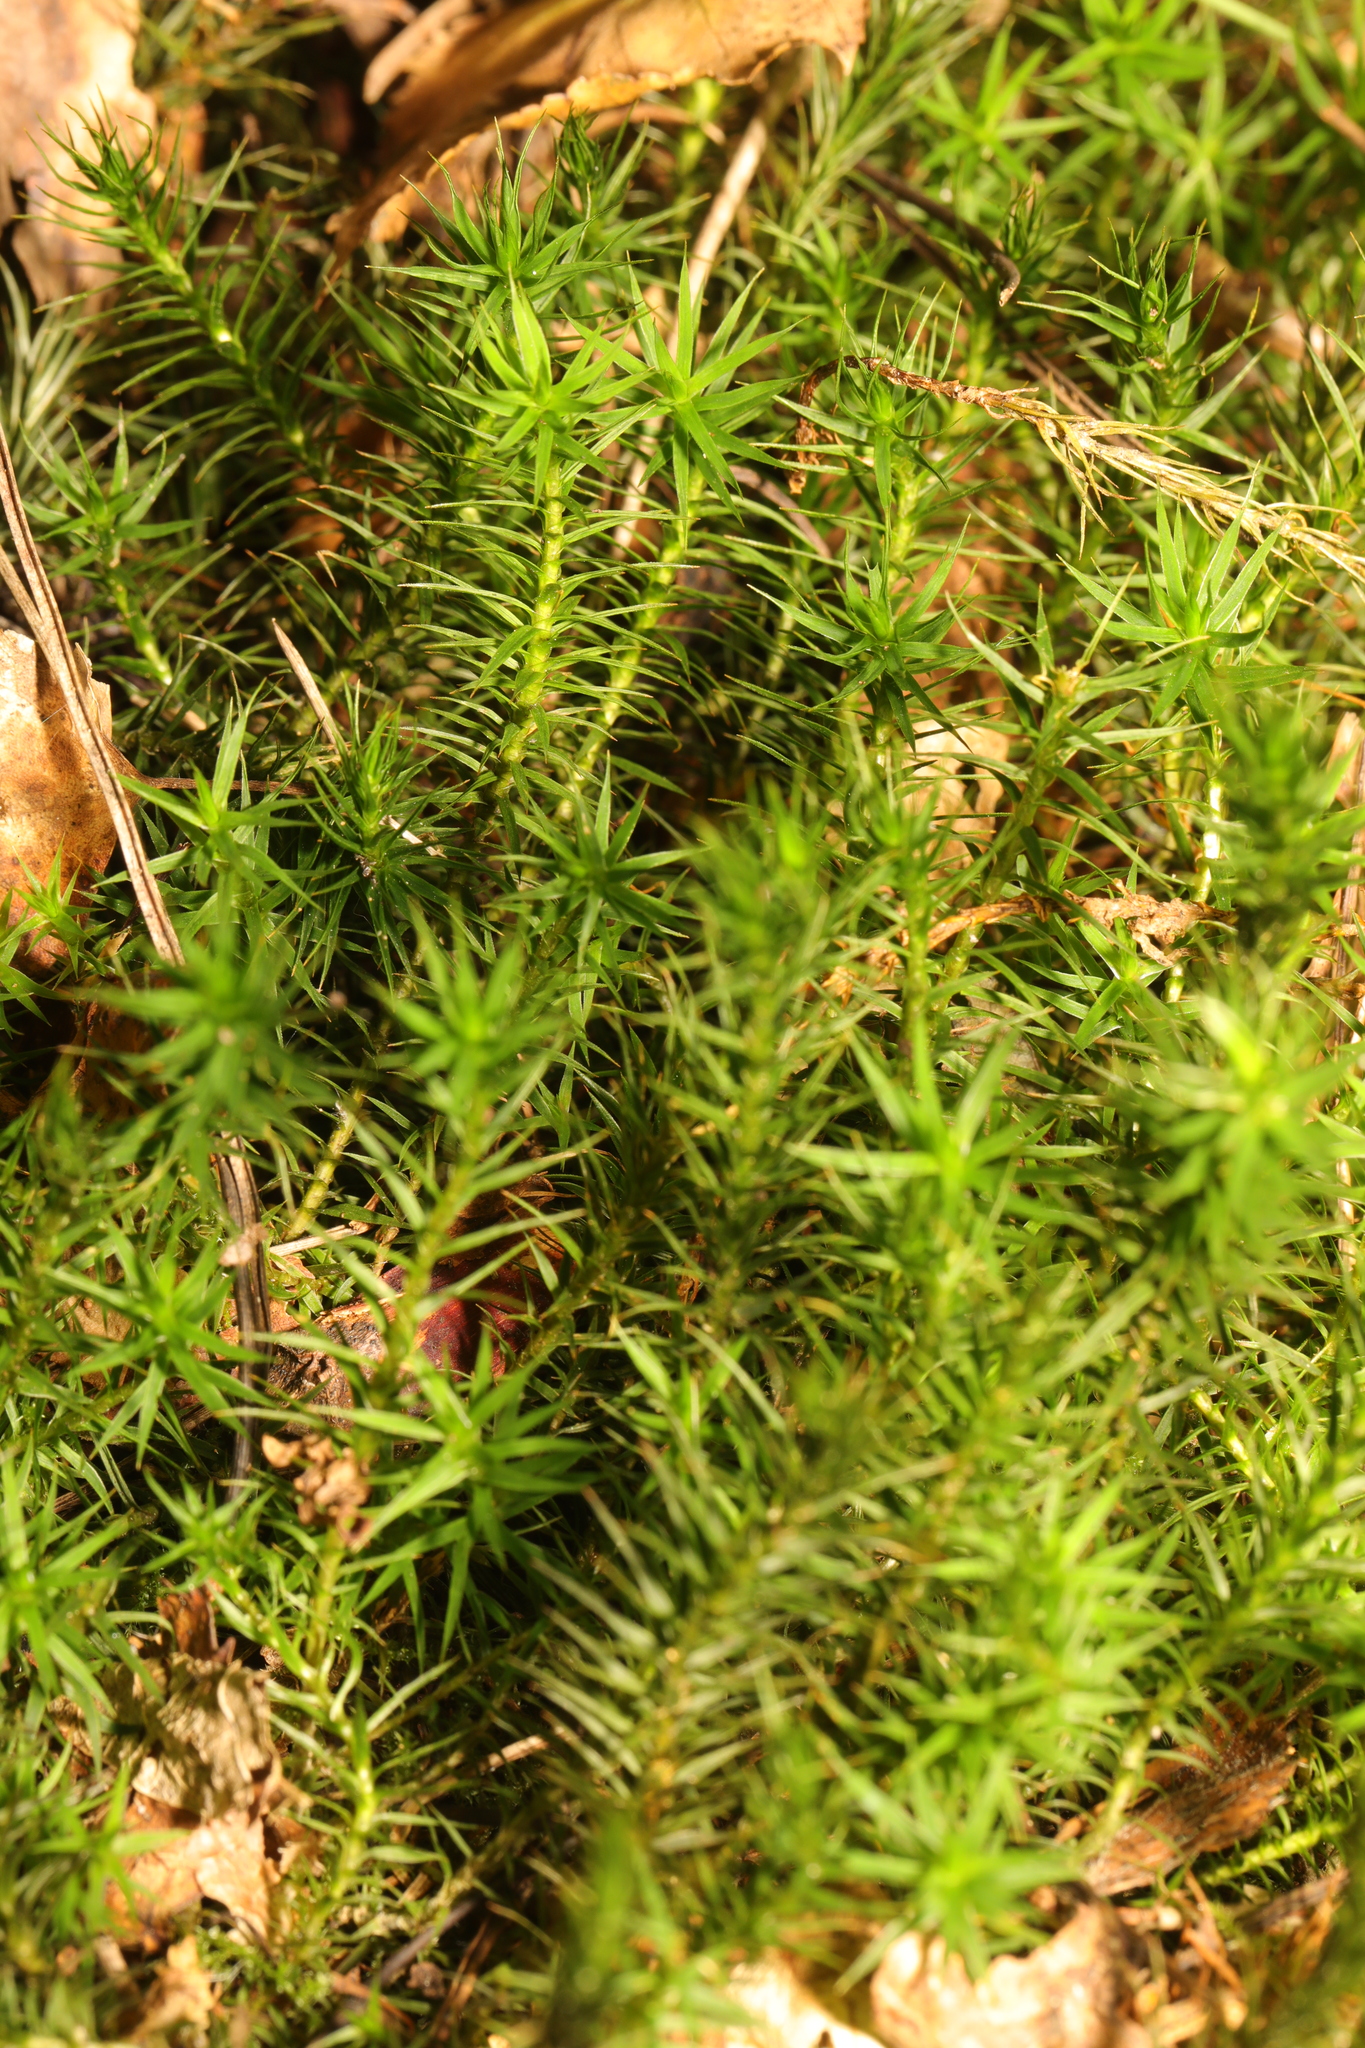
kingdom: Plantae
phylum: Bryophyta
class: Polytrichopsida
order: Polytrichales
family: Polytrichaceae
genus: Polytrichum
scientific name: Polytrichum formosum
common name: Bank haircap moss
